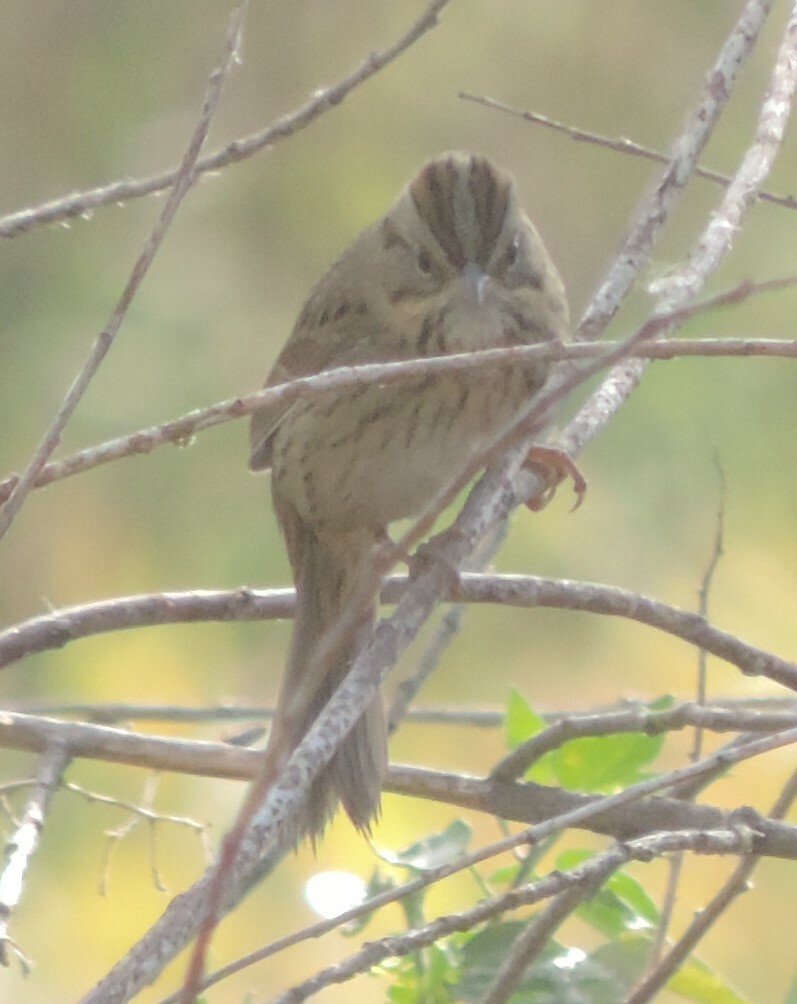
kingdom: Animalia
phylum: Chordata
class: Aves
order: Passeriformes
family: Passerellidae
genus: Melospiza
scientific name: Melospiza lincolnii
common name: Lincoln's sparrow
